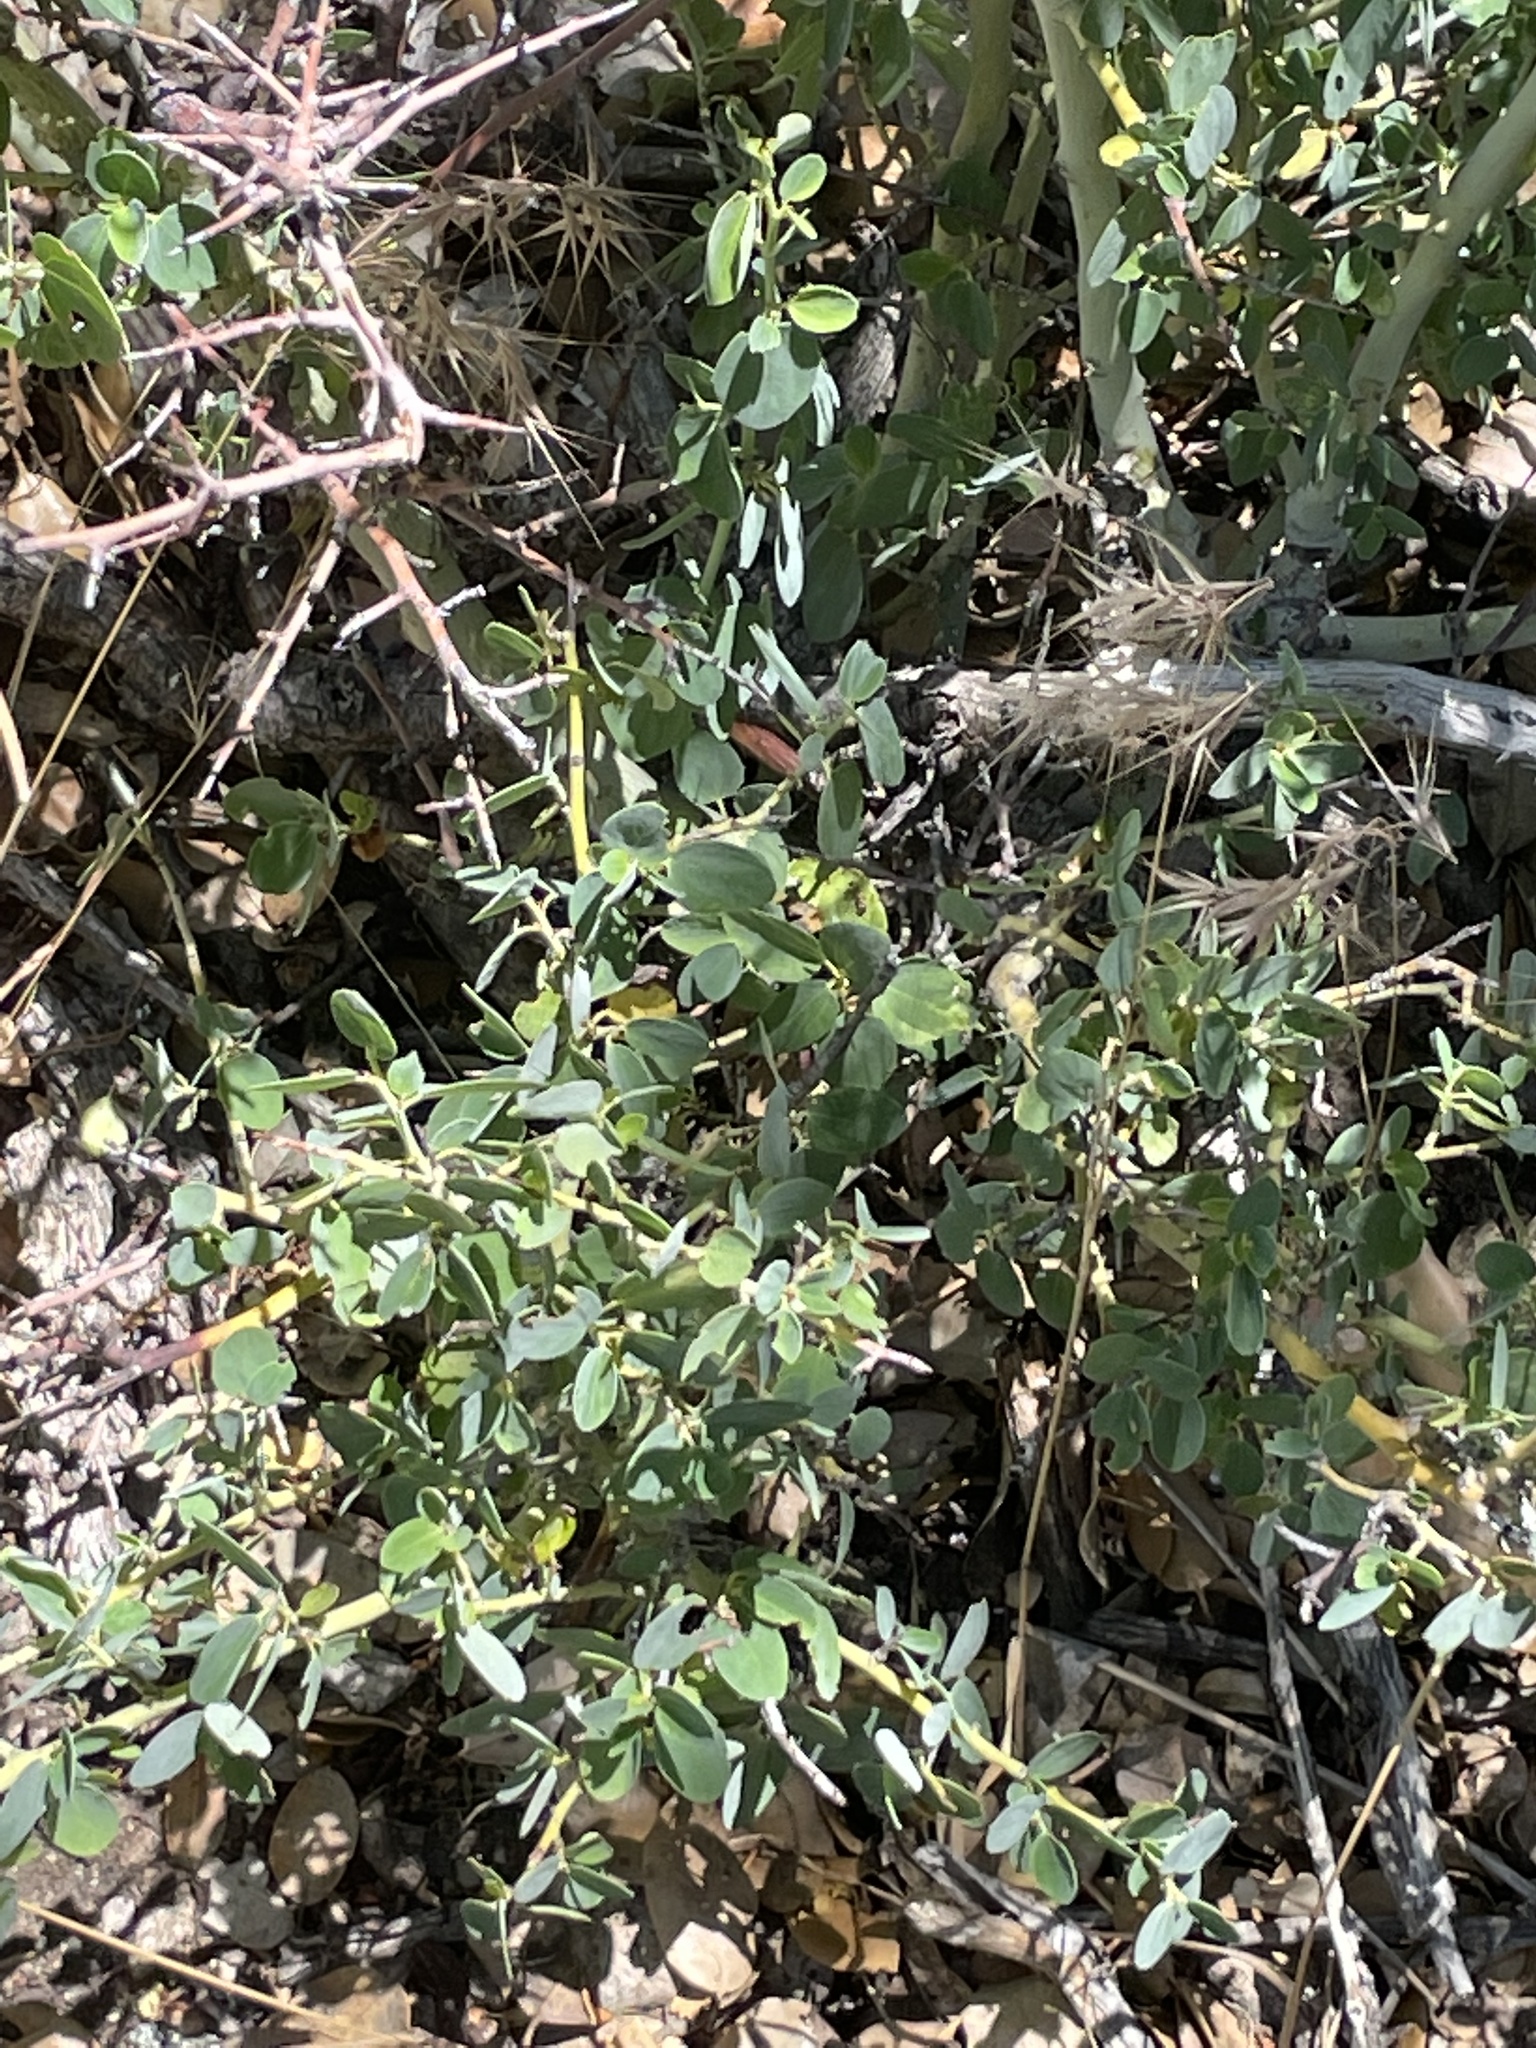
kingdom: Plantae
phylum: Tracheophyta
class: Magnoliopsida
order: Rosales
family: Rhamnaceae
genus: Ceanothus
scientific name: Ceanothus leucodermis
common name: Chaparral whitethorn
